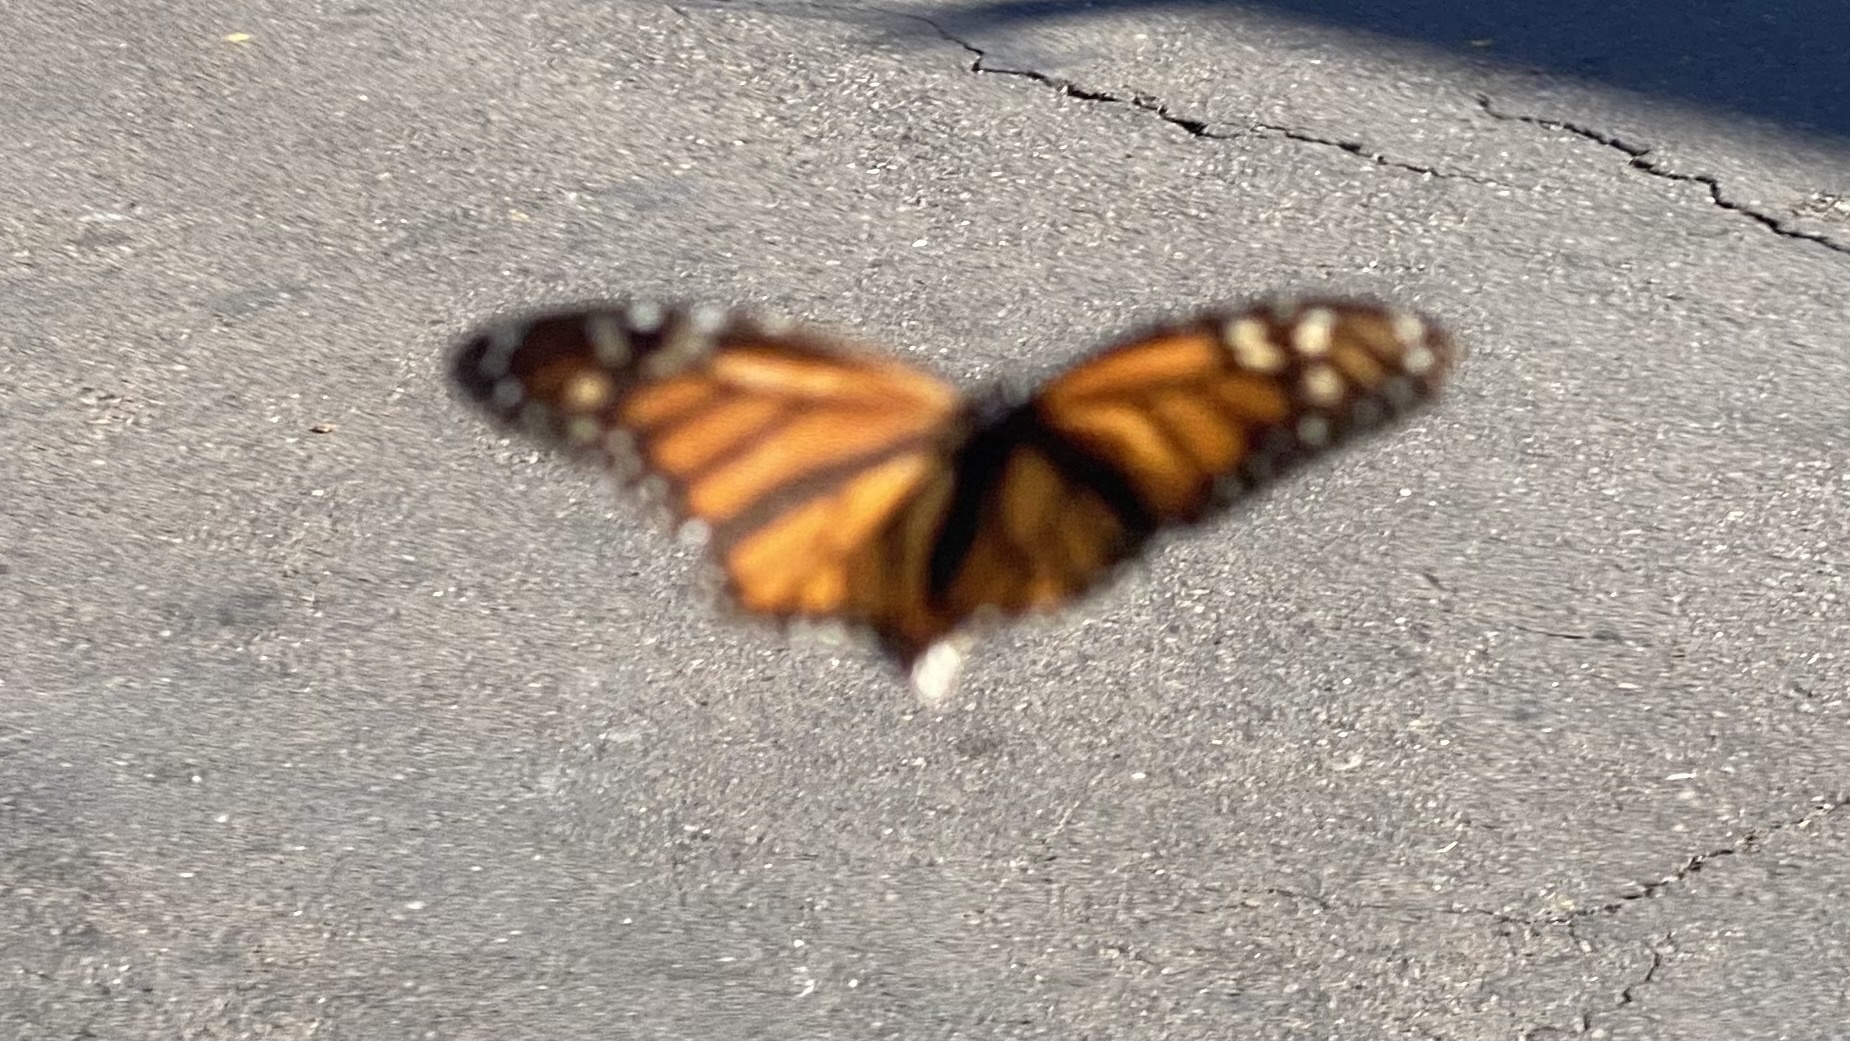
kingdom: Animalia
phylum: Arthropoda
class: Insecta
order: Lepidoptera
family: Nymphalidae
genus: Danaus
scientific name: Danaus plexippus
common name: Monarch
